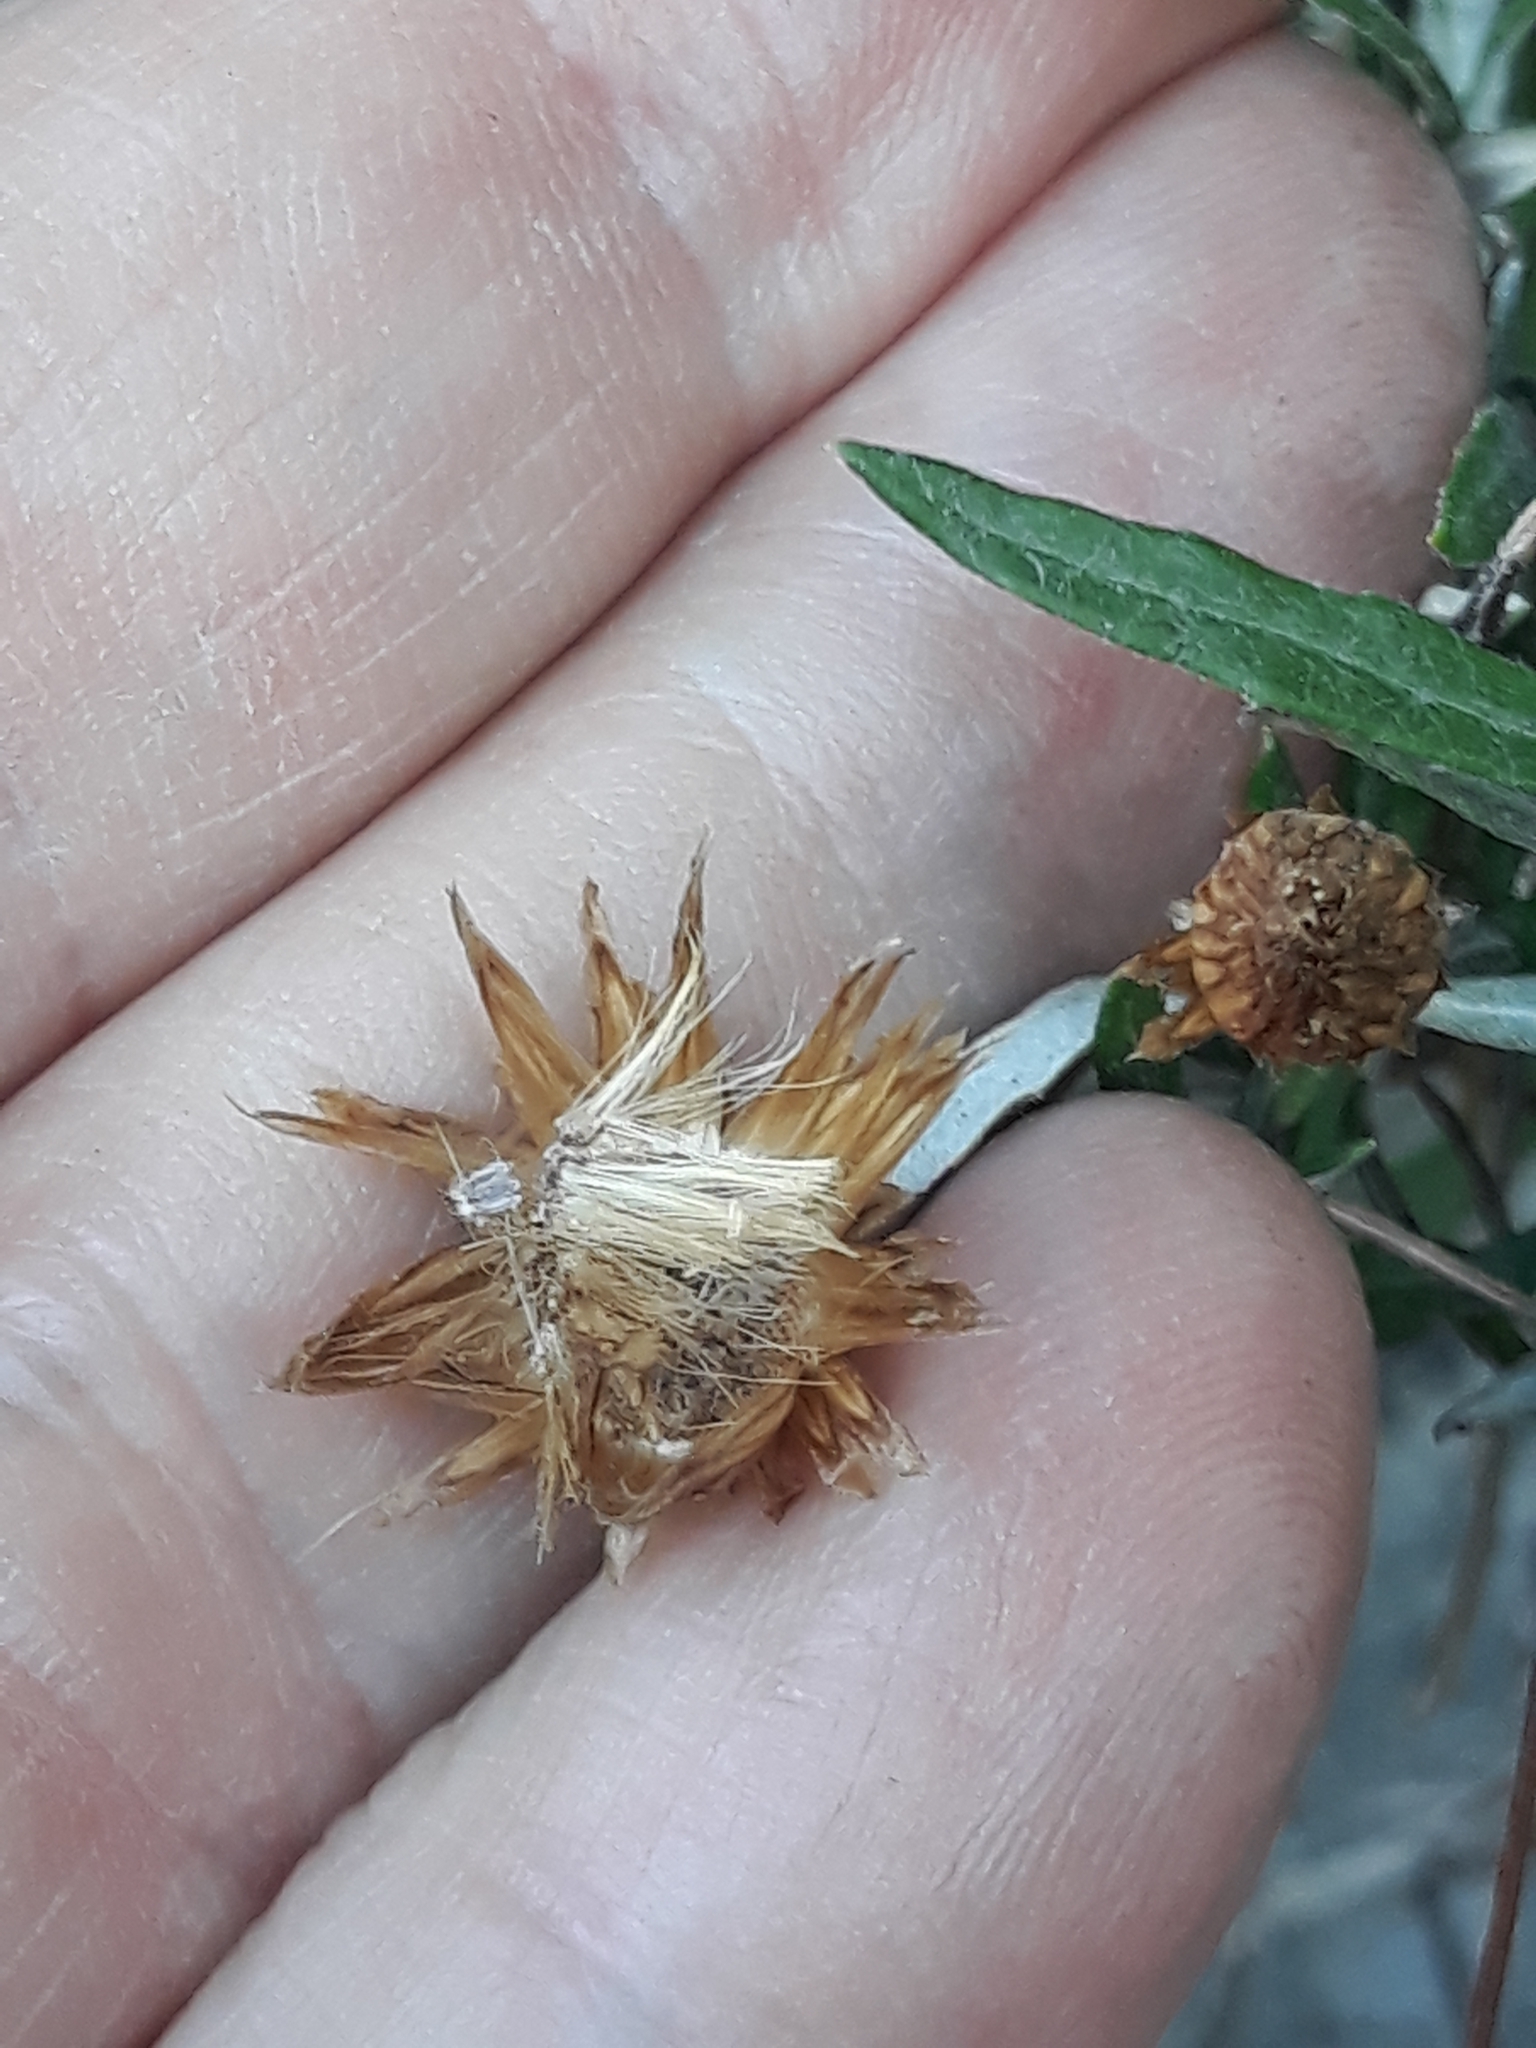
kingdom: Plantae
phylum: Tracheophyta
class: Magnoliopsida
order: Asterales
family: Asteraceae
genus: Phagnalon
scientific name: Phagnalon saxatile
